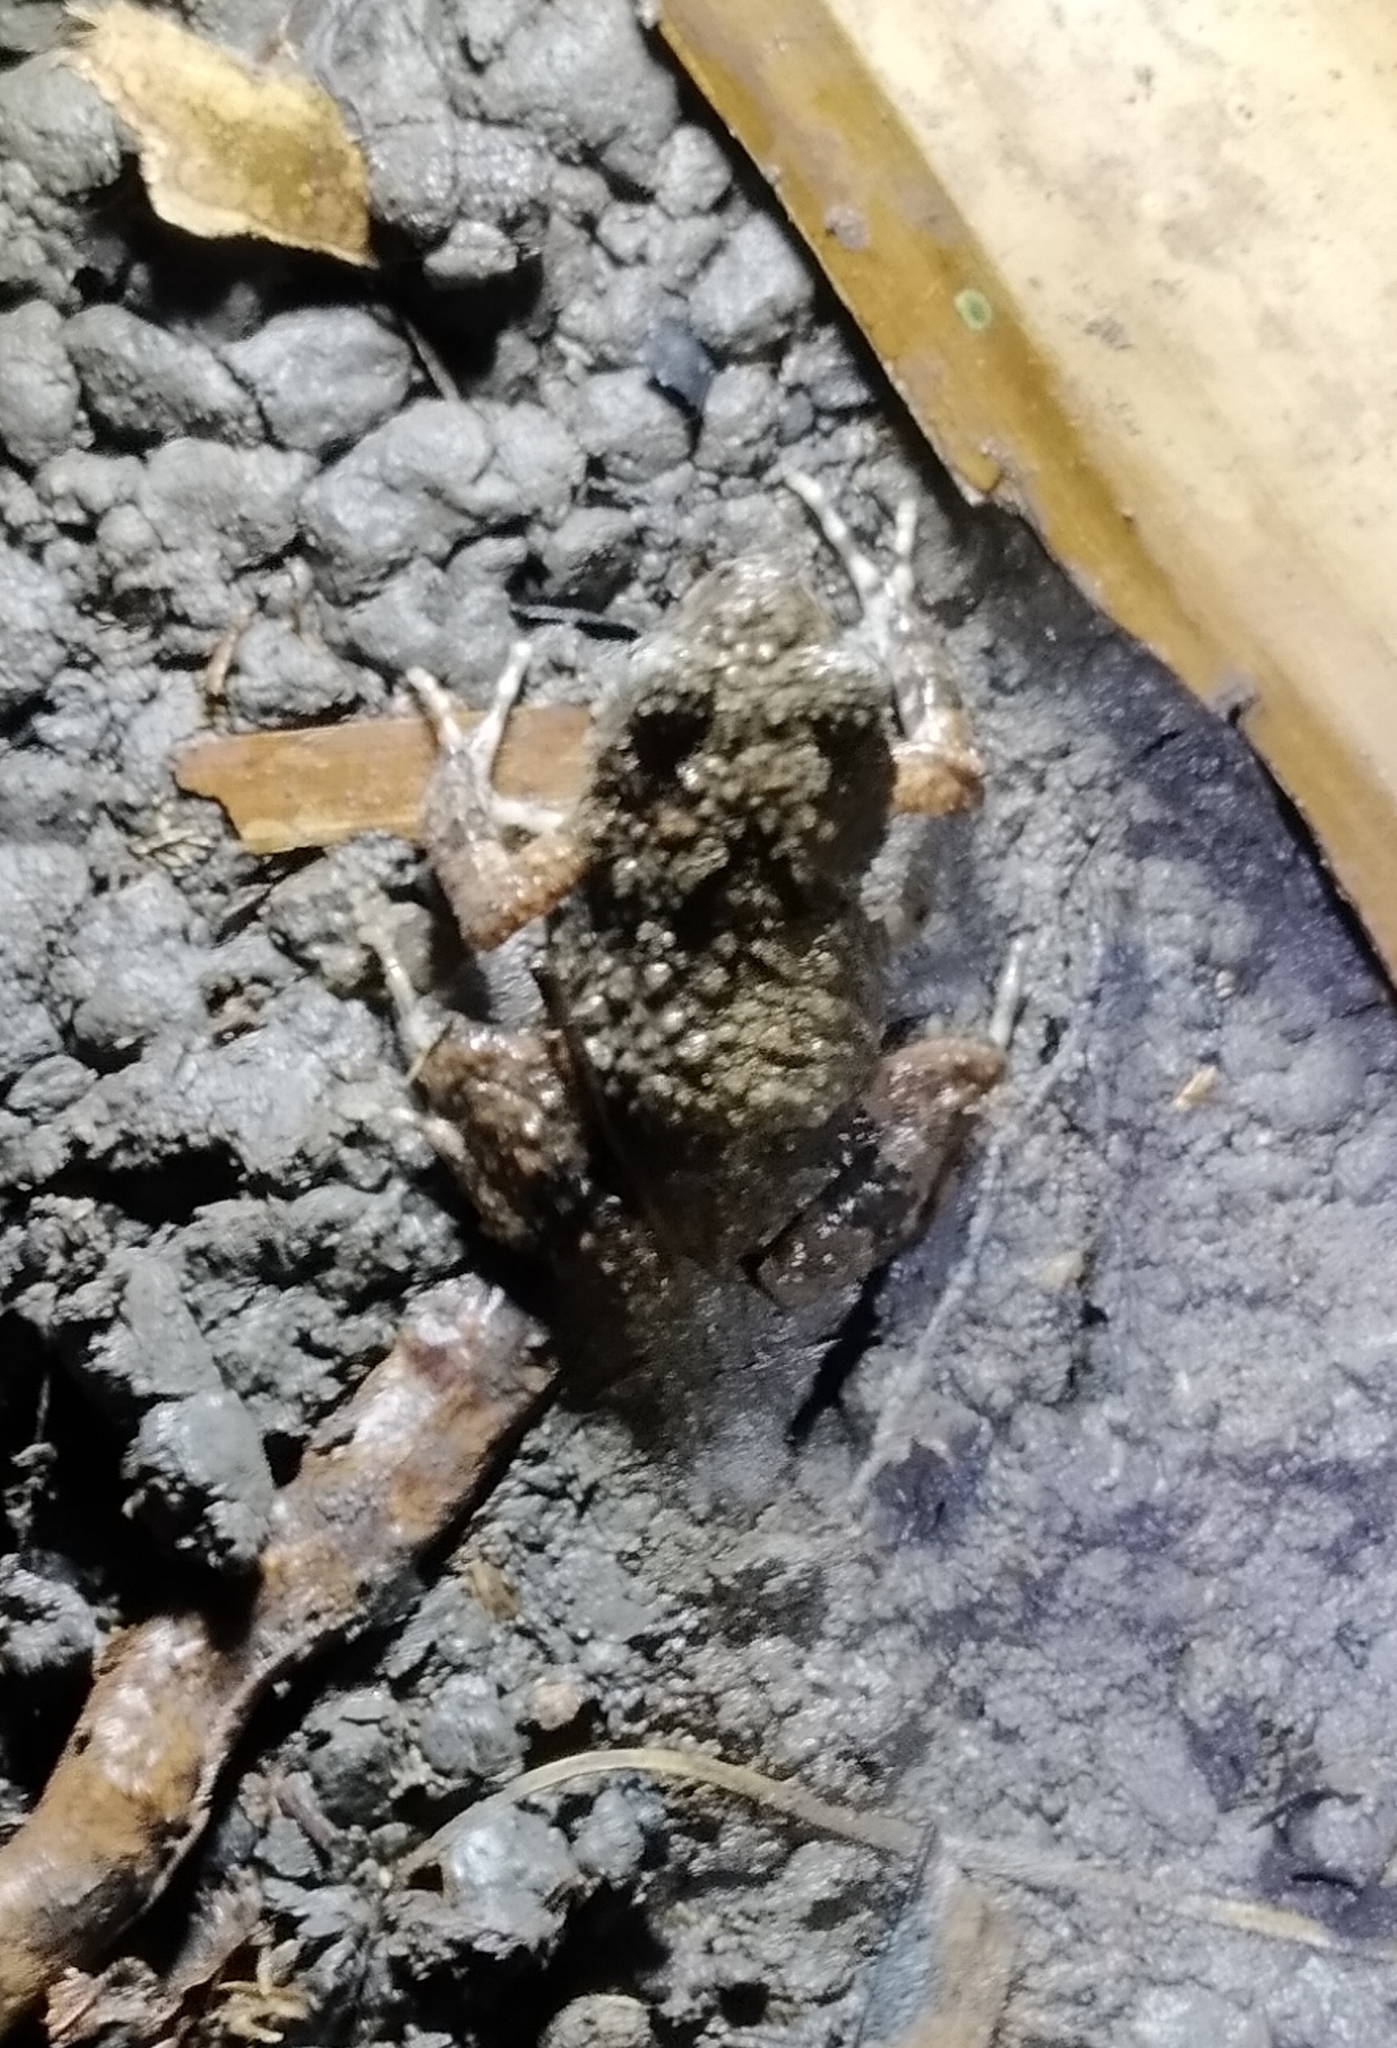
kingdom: Animalia
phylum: Chordata
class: Amphibia
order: Anura
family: Leptodactylidae
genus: Engystomops
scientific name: Engystomops pustulosus
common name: Tungara frog
